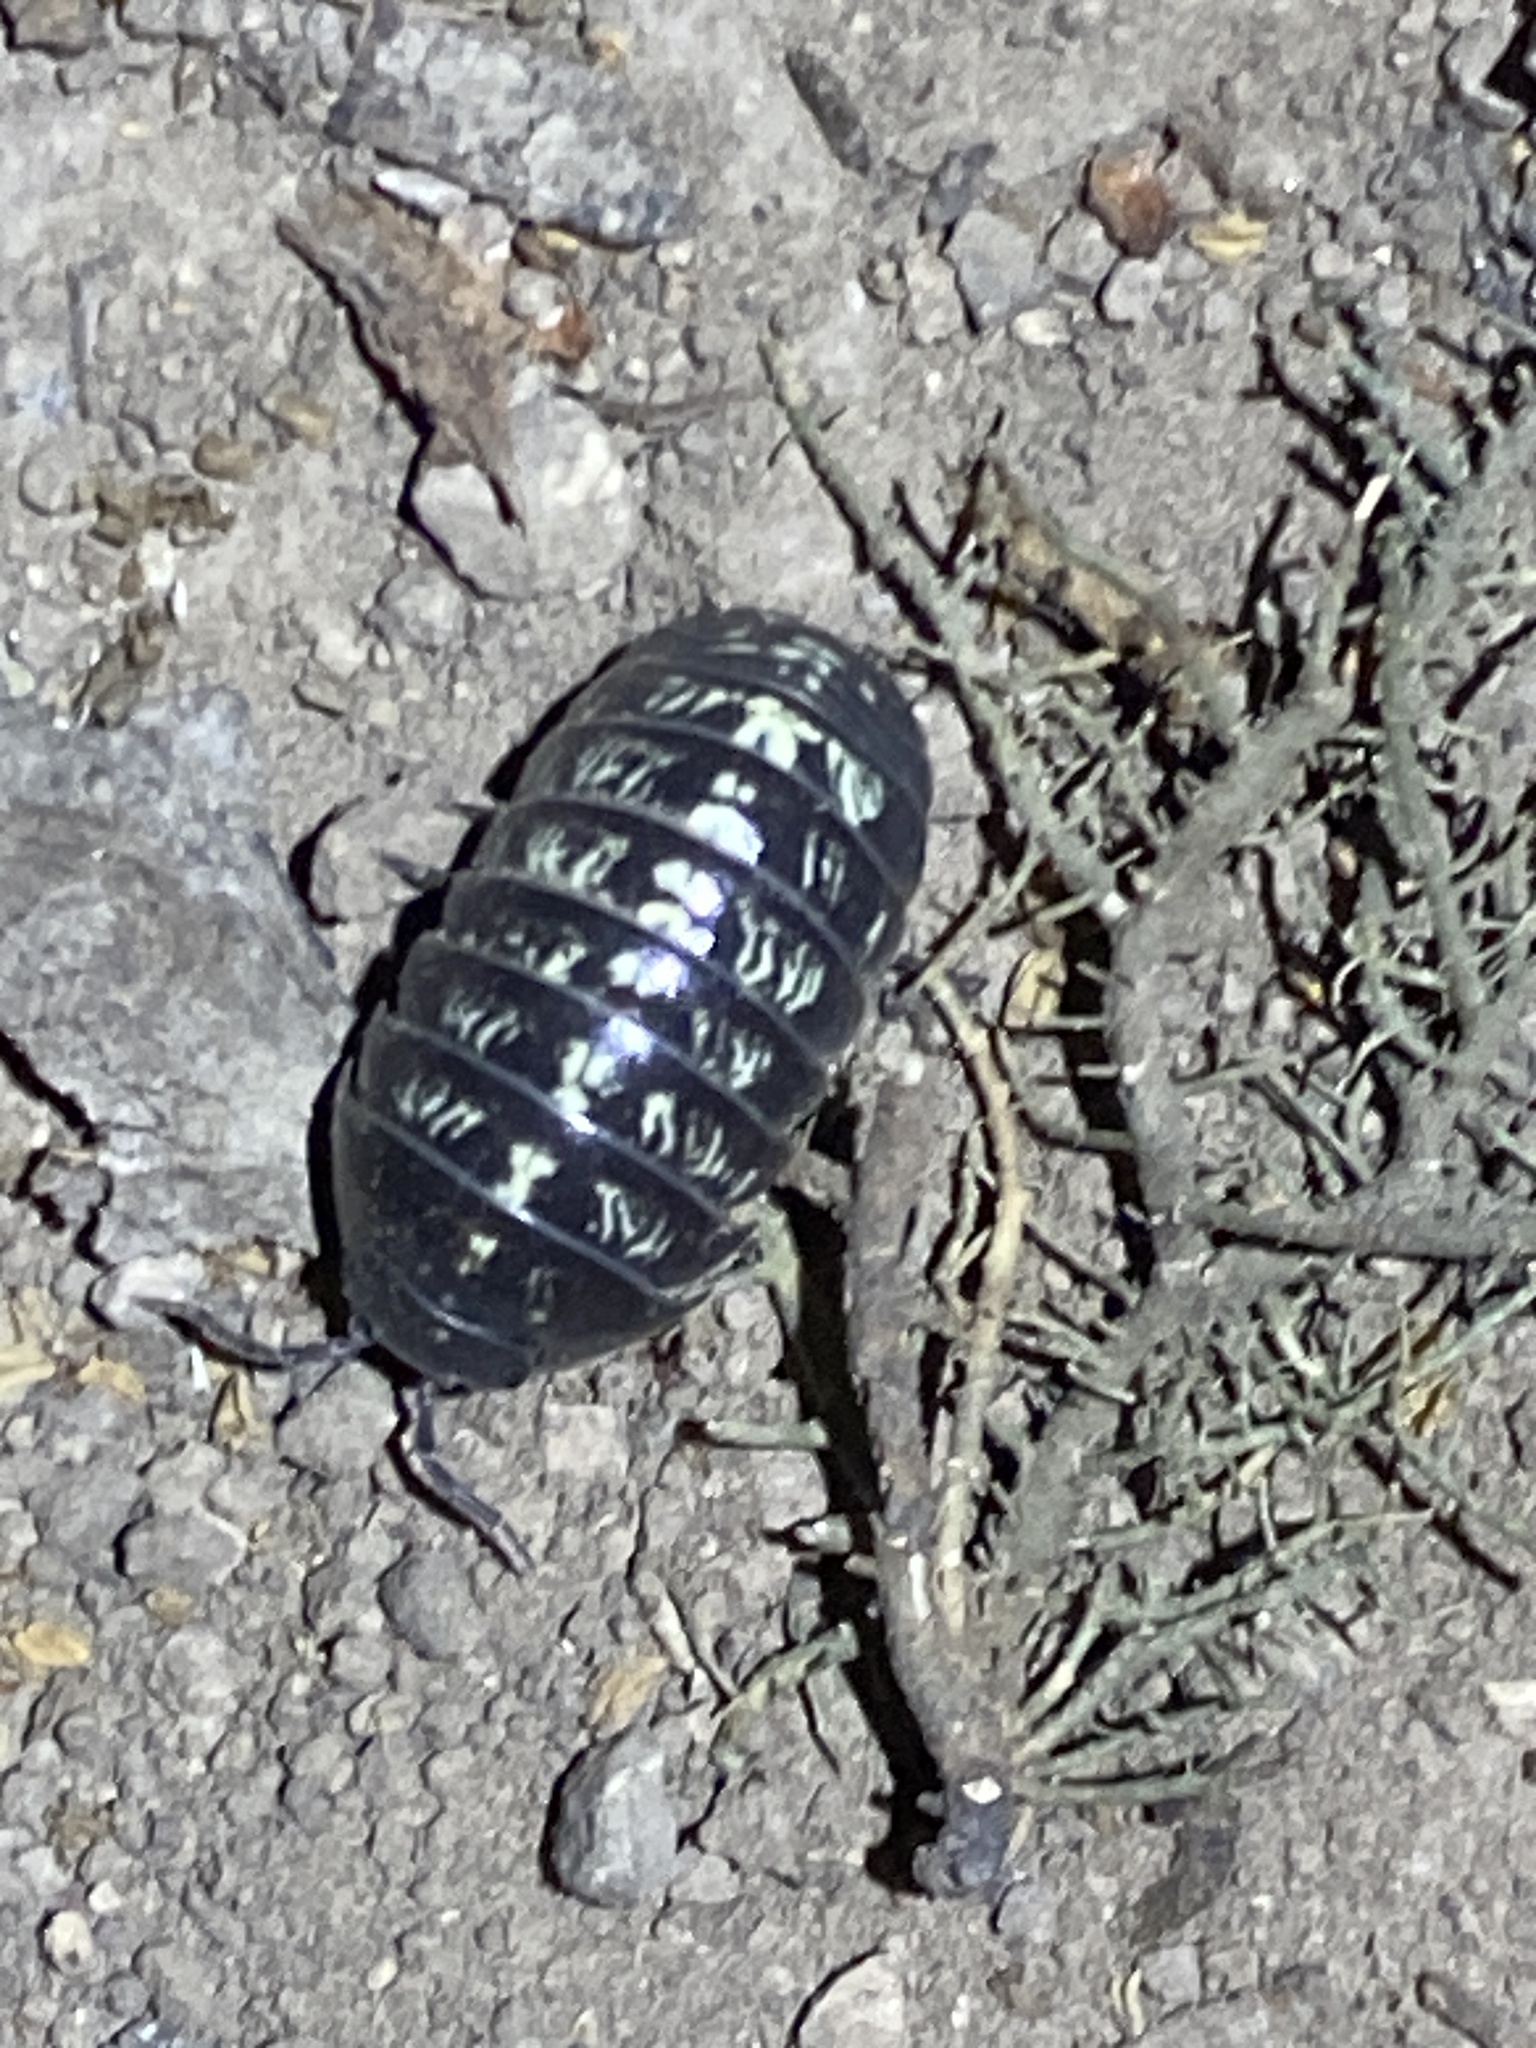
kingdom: Animalia
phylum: Arthropoda
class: Malacostraca
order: Isopoda
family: Armadillidiidae
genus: Armadillidium
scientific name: Armadillidium vulgare
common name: Common pill woodlouse
